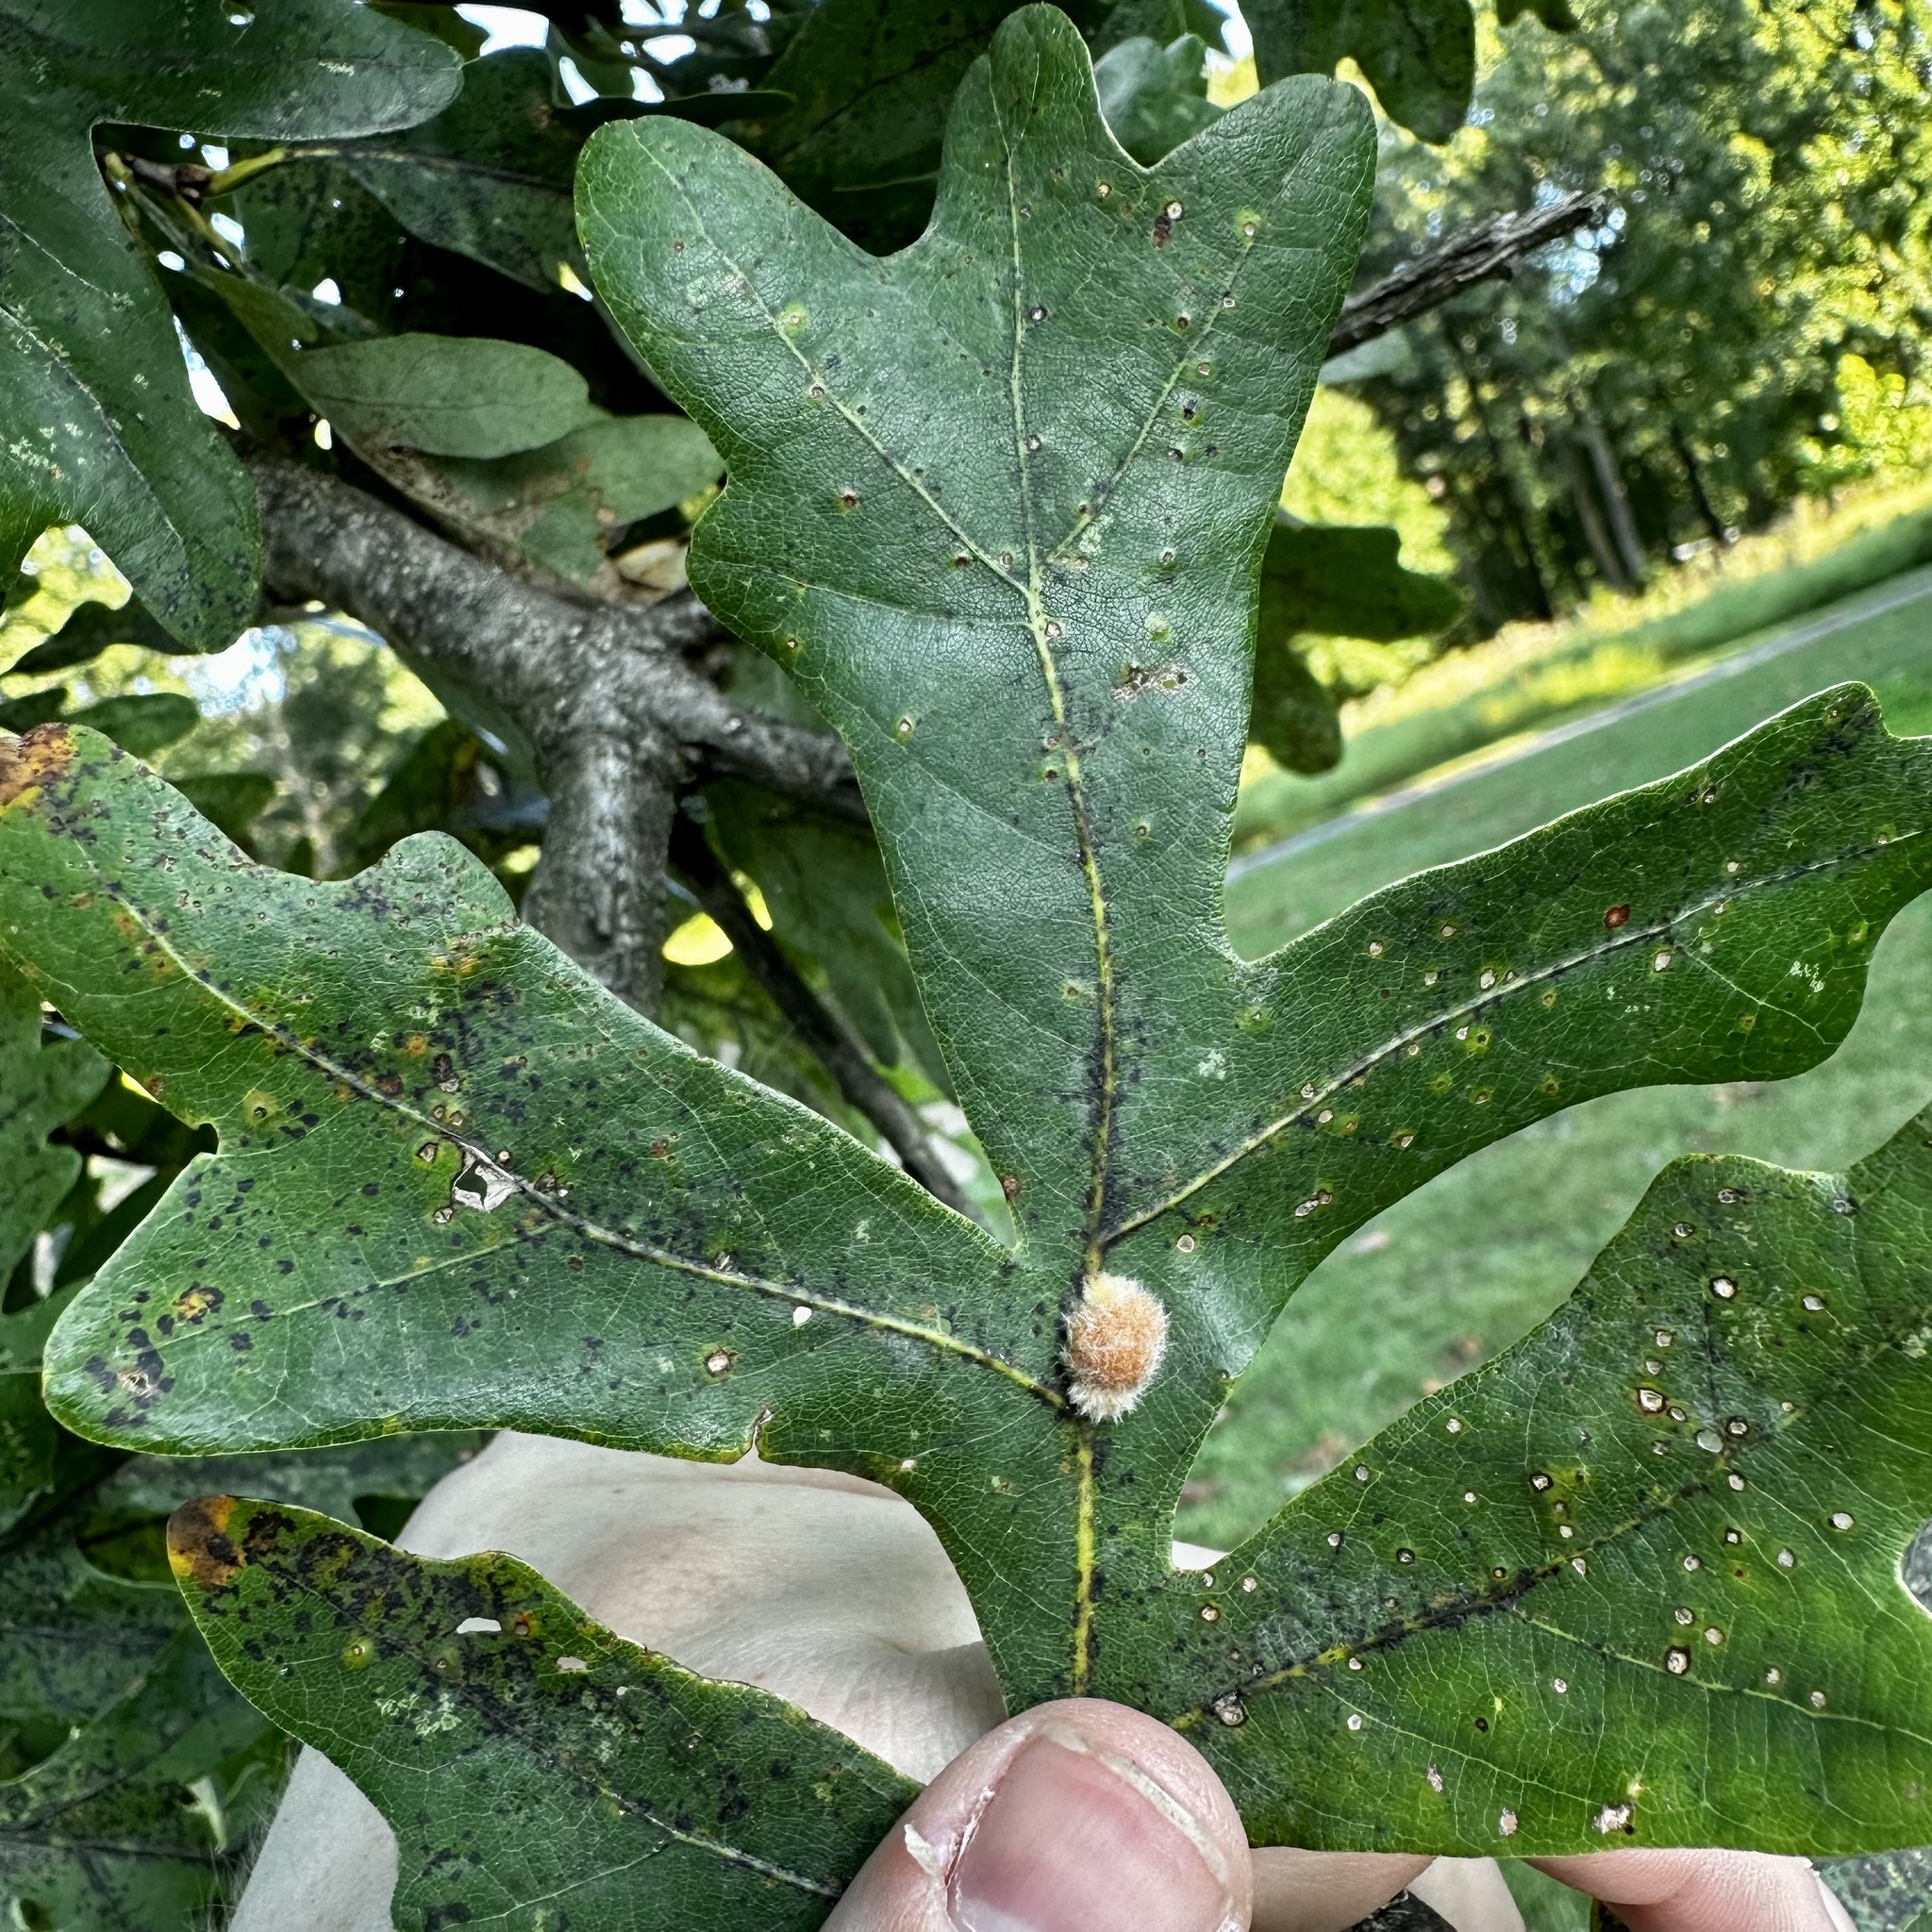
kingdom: Animalia
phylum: Arthropoda
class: Insecta
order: Hymenoptera
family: Cynipidae
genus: Andricus
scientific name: Andricus quercusflocci
